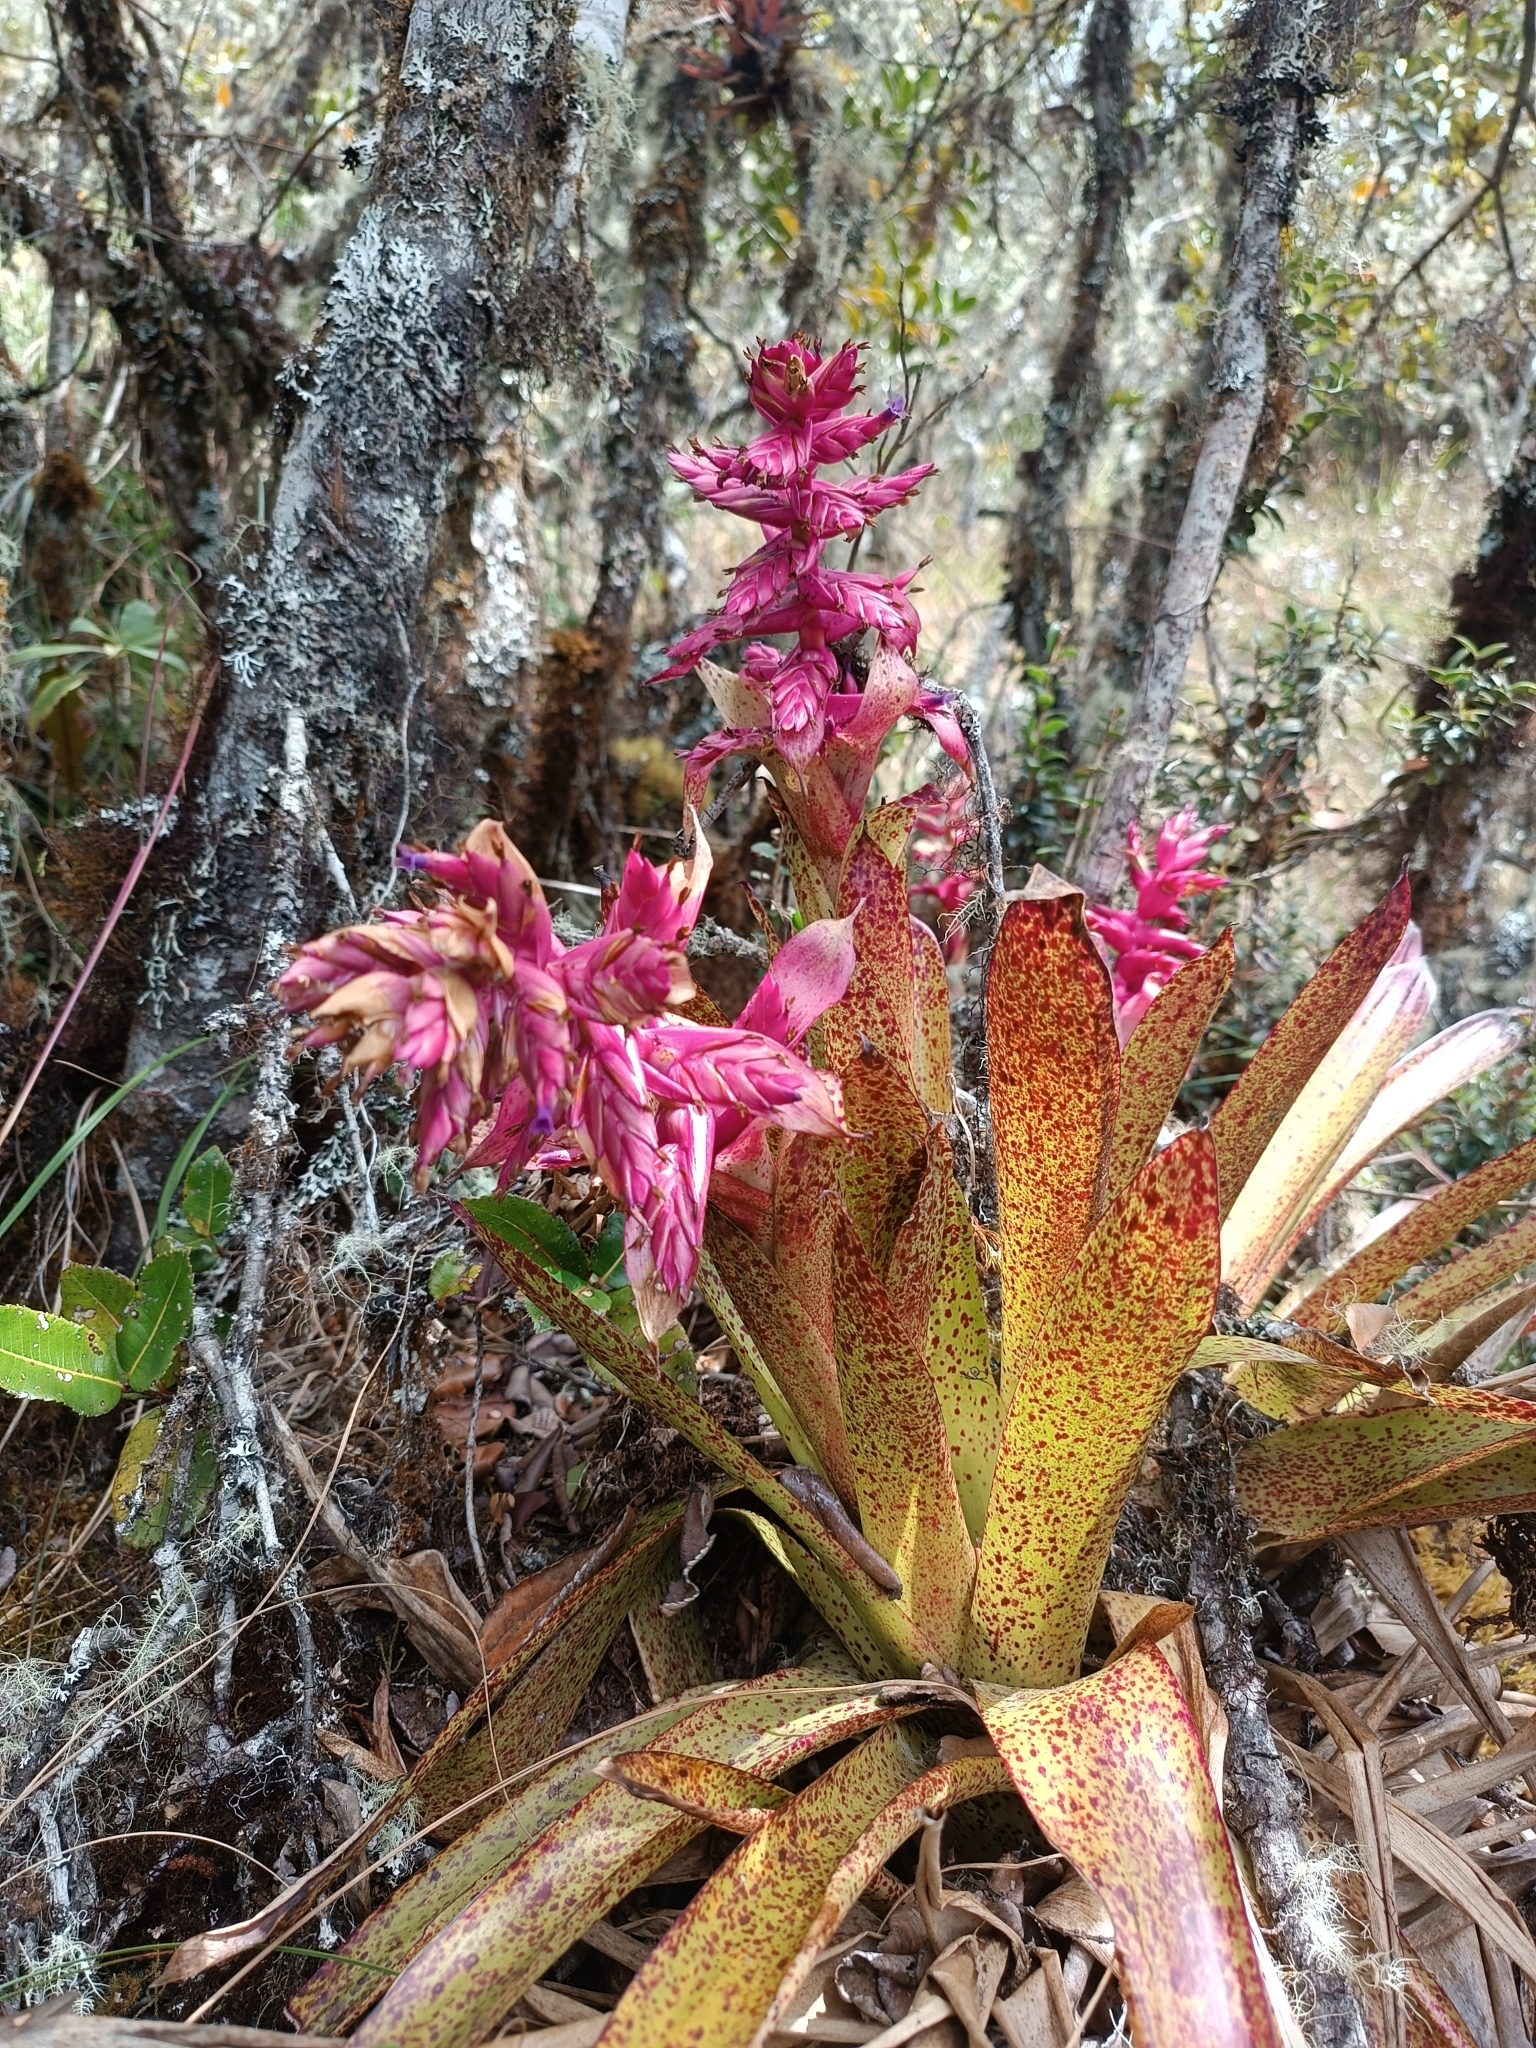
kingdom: Plantae
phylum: Tracheophyta
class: Liliopsida
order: Poales
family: Bromeliaceae
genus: Tillandsia
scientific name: Tillandsia rubella
